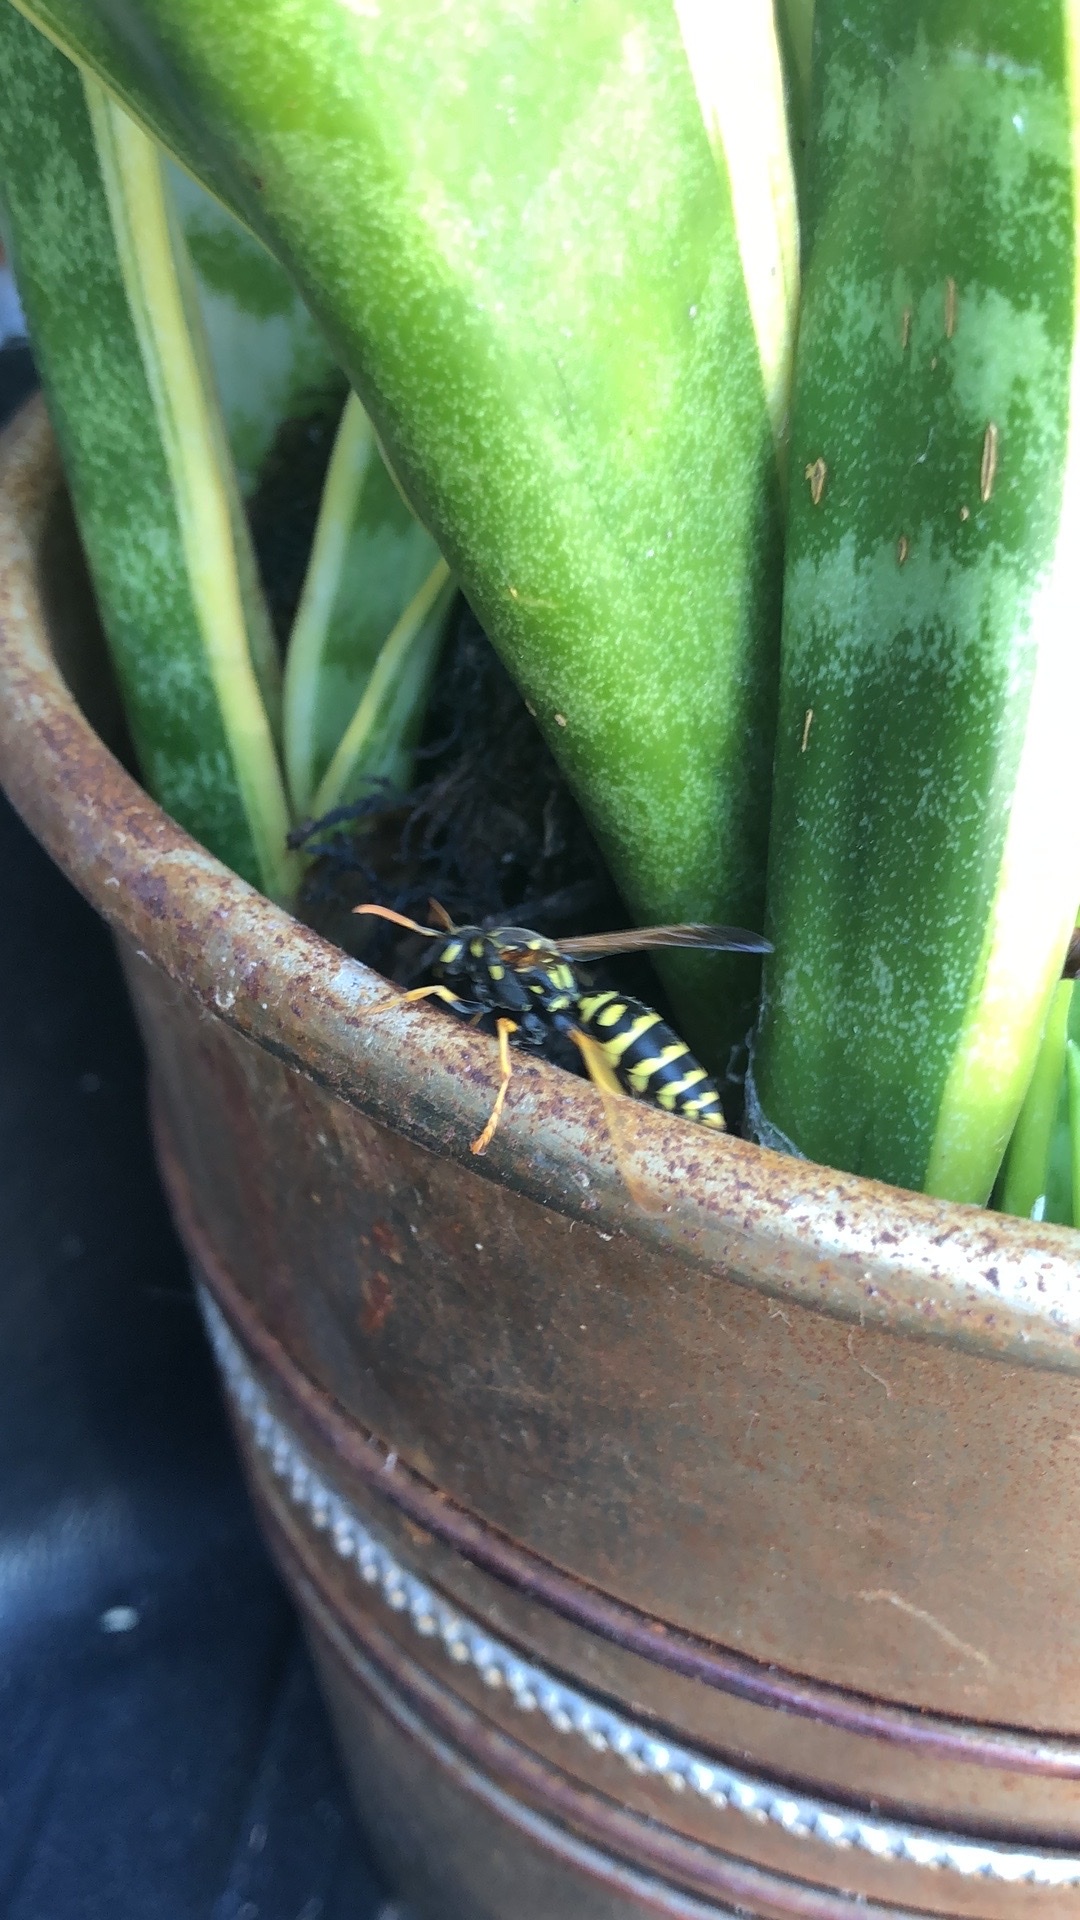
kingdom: Animalia
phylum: Arthropoda
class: Insecta
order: Hymenoptera
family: Eumenidae
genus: Polistes
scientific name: Polistes dominula
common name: Paper wasp
